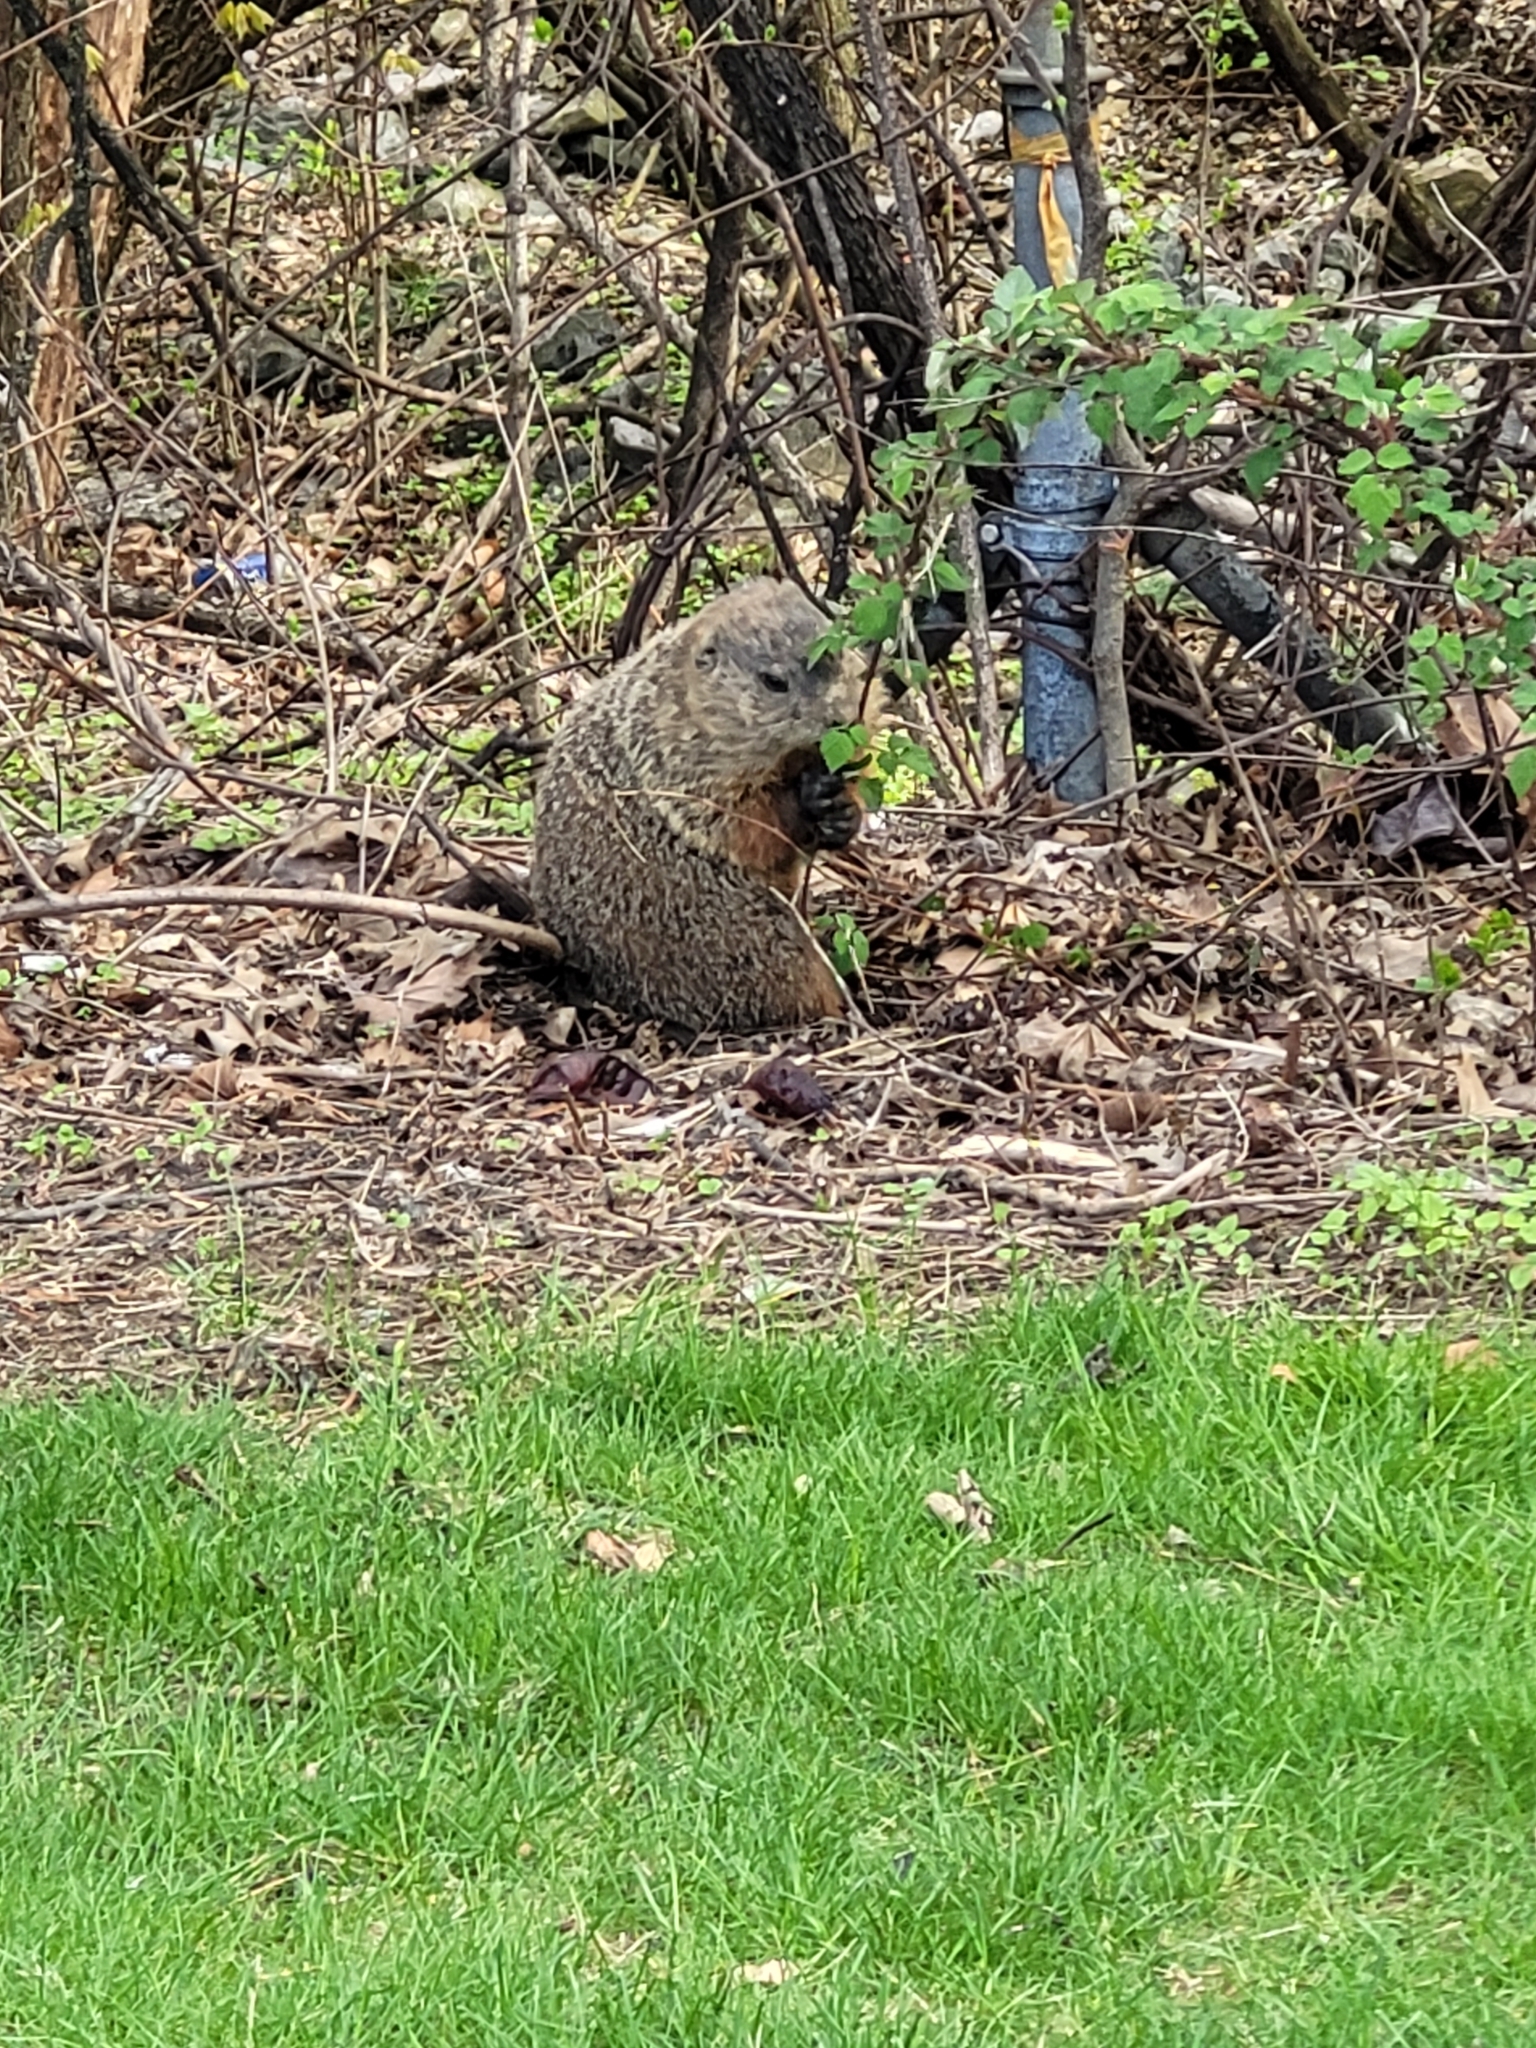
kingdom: Animalia
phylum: Chordata
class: Mammalia
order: Rodentia
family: Sciuridae
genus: Marmota
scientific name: Marmota monax
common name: Groundhog
